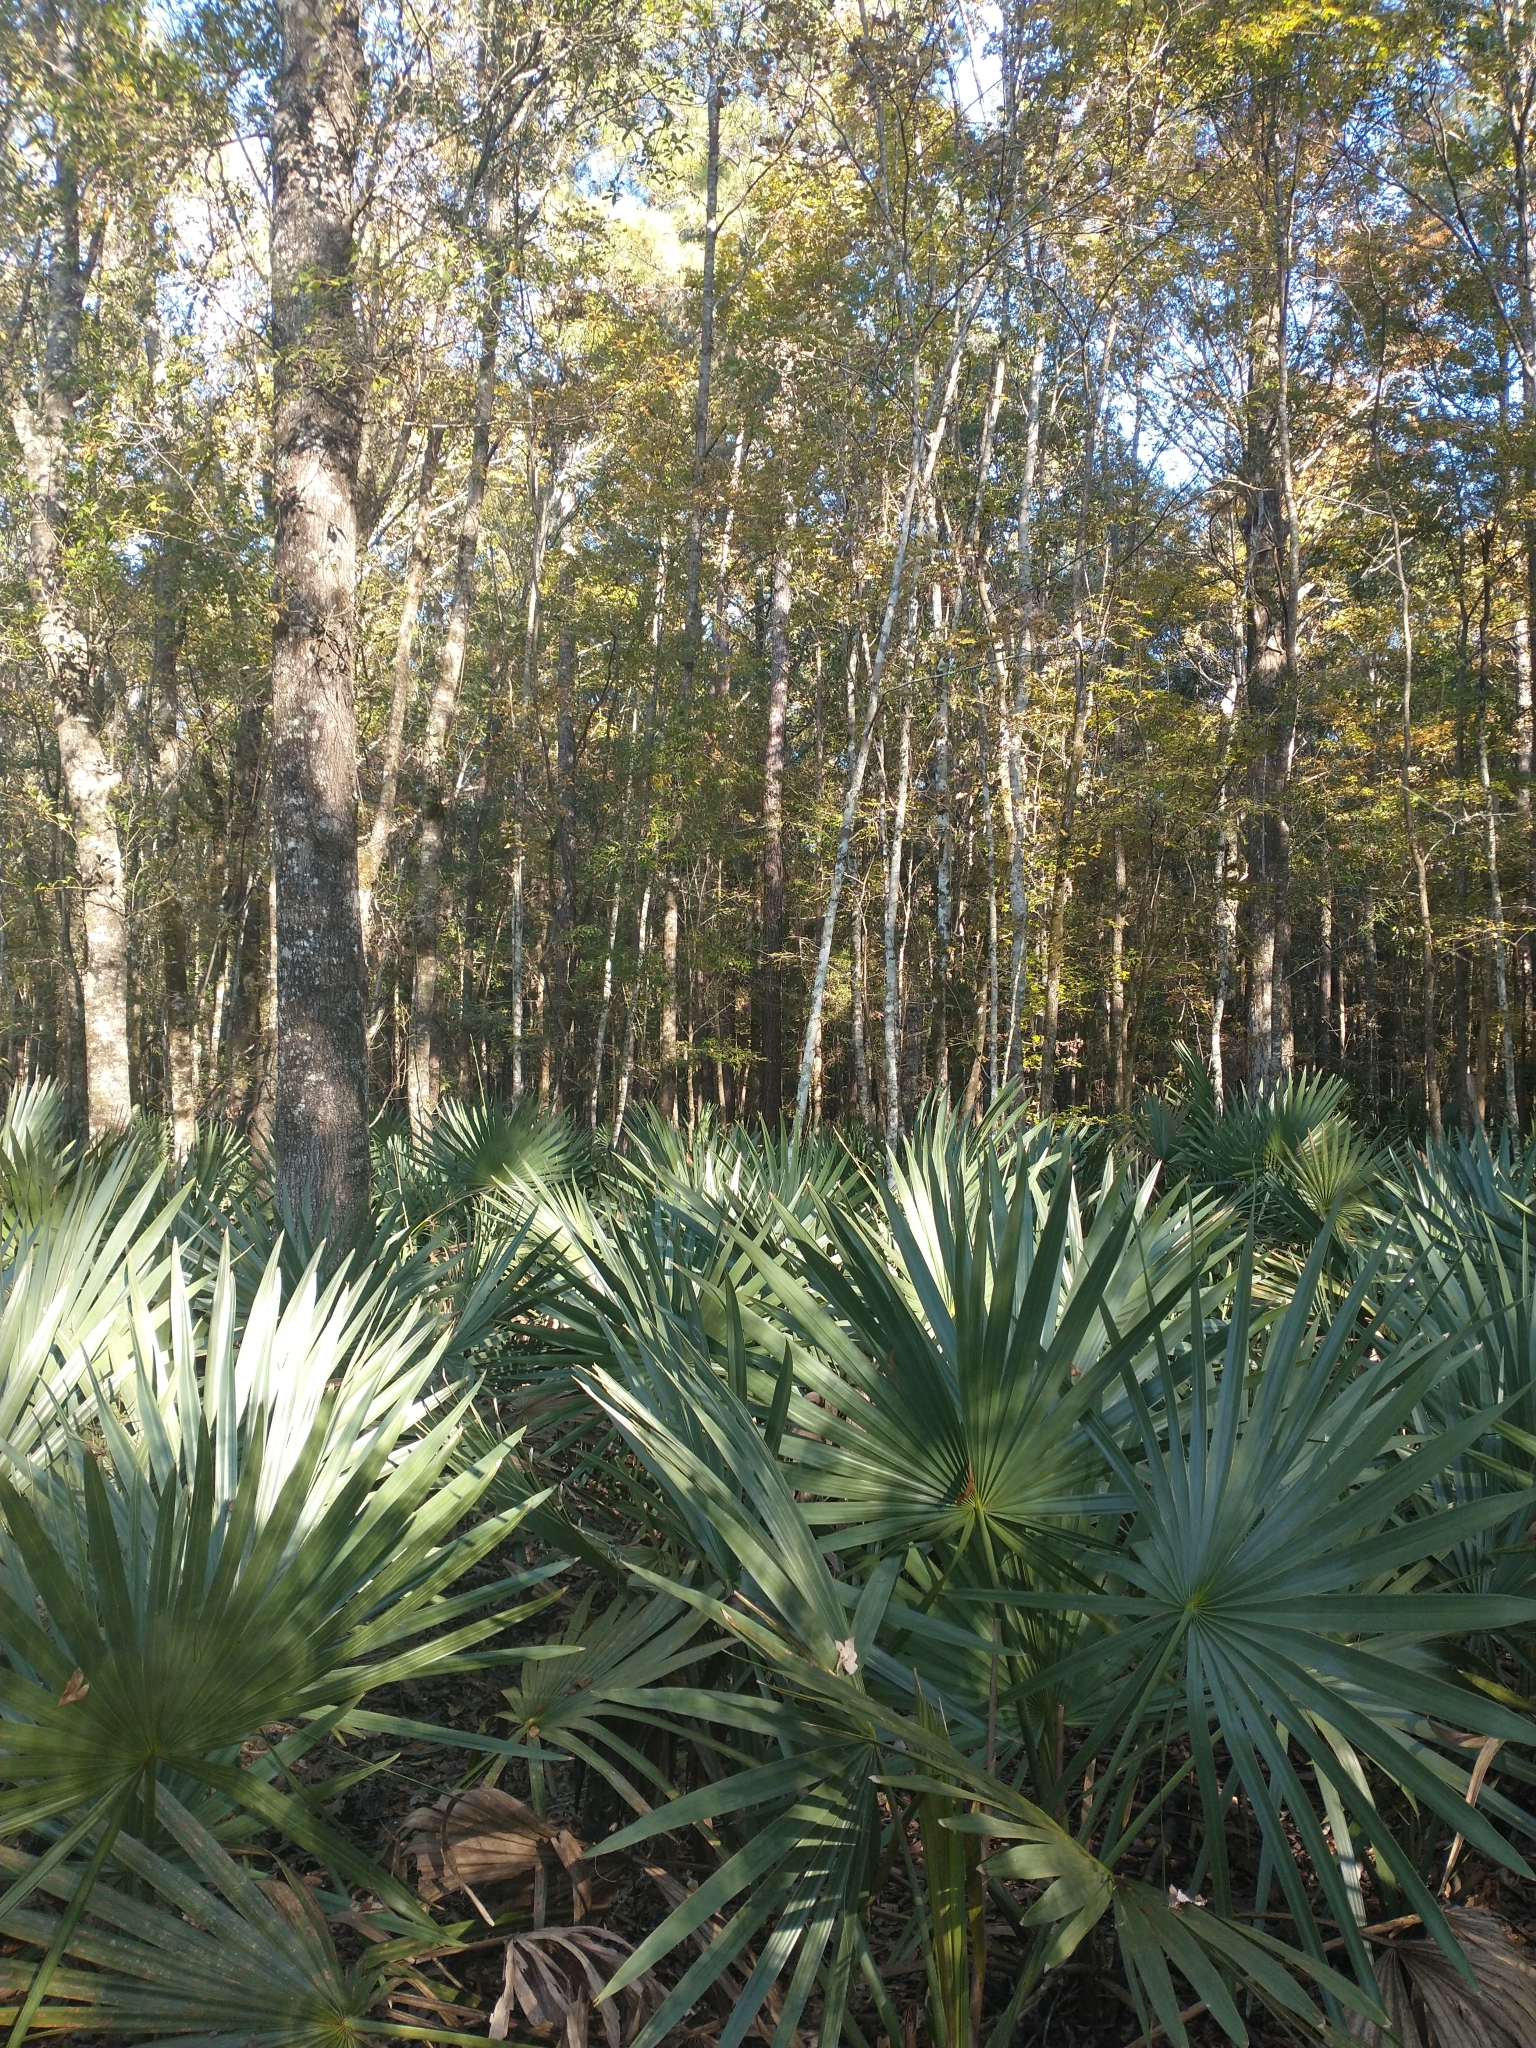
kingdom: Plantae
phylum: Tracheophyta
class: Liliopsida
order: Arecales
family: Arecaceae
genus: Sabal
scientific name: Sabal minor
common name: Dwarf palmetto
